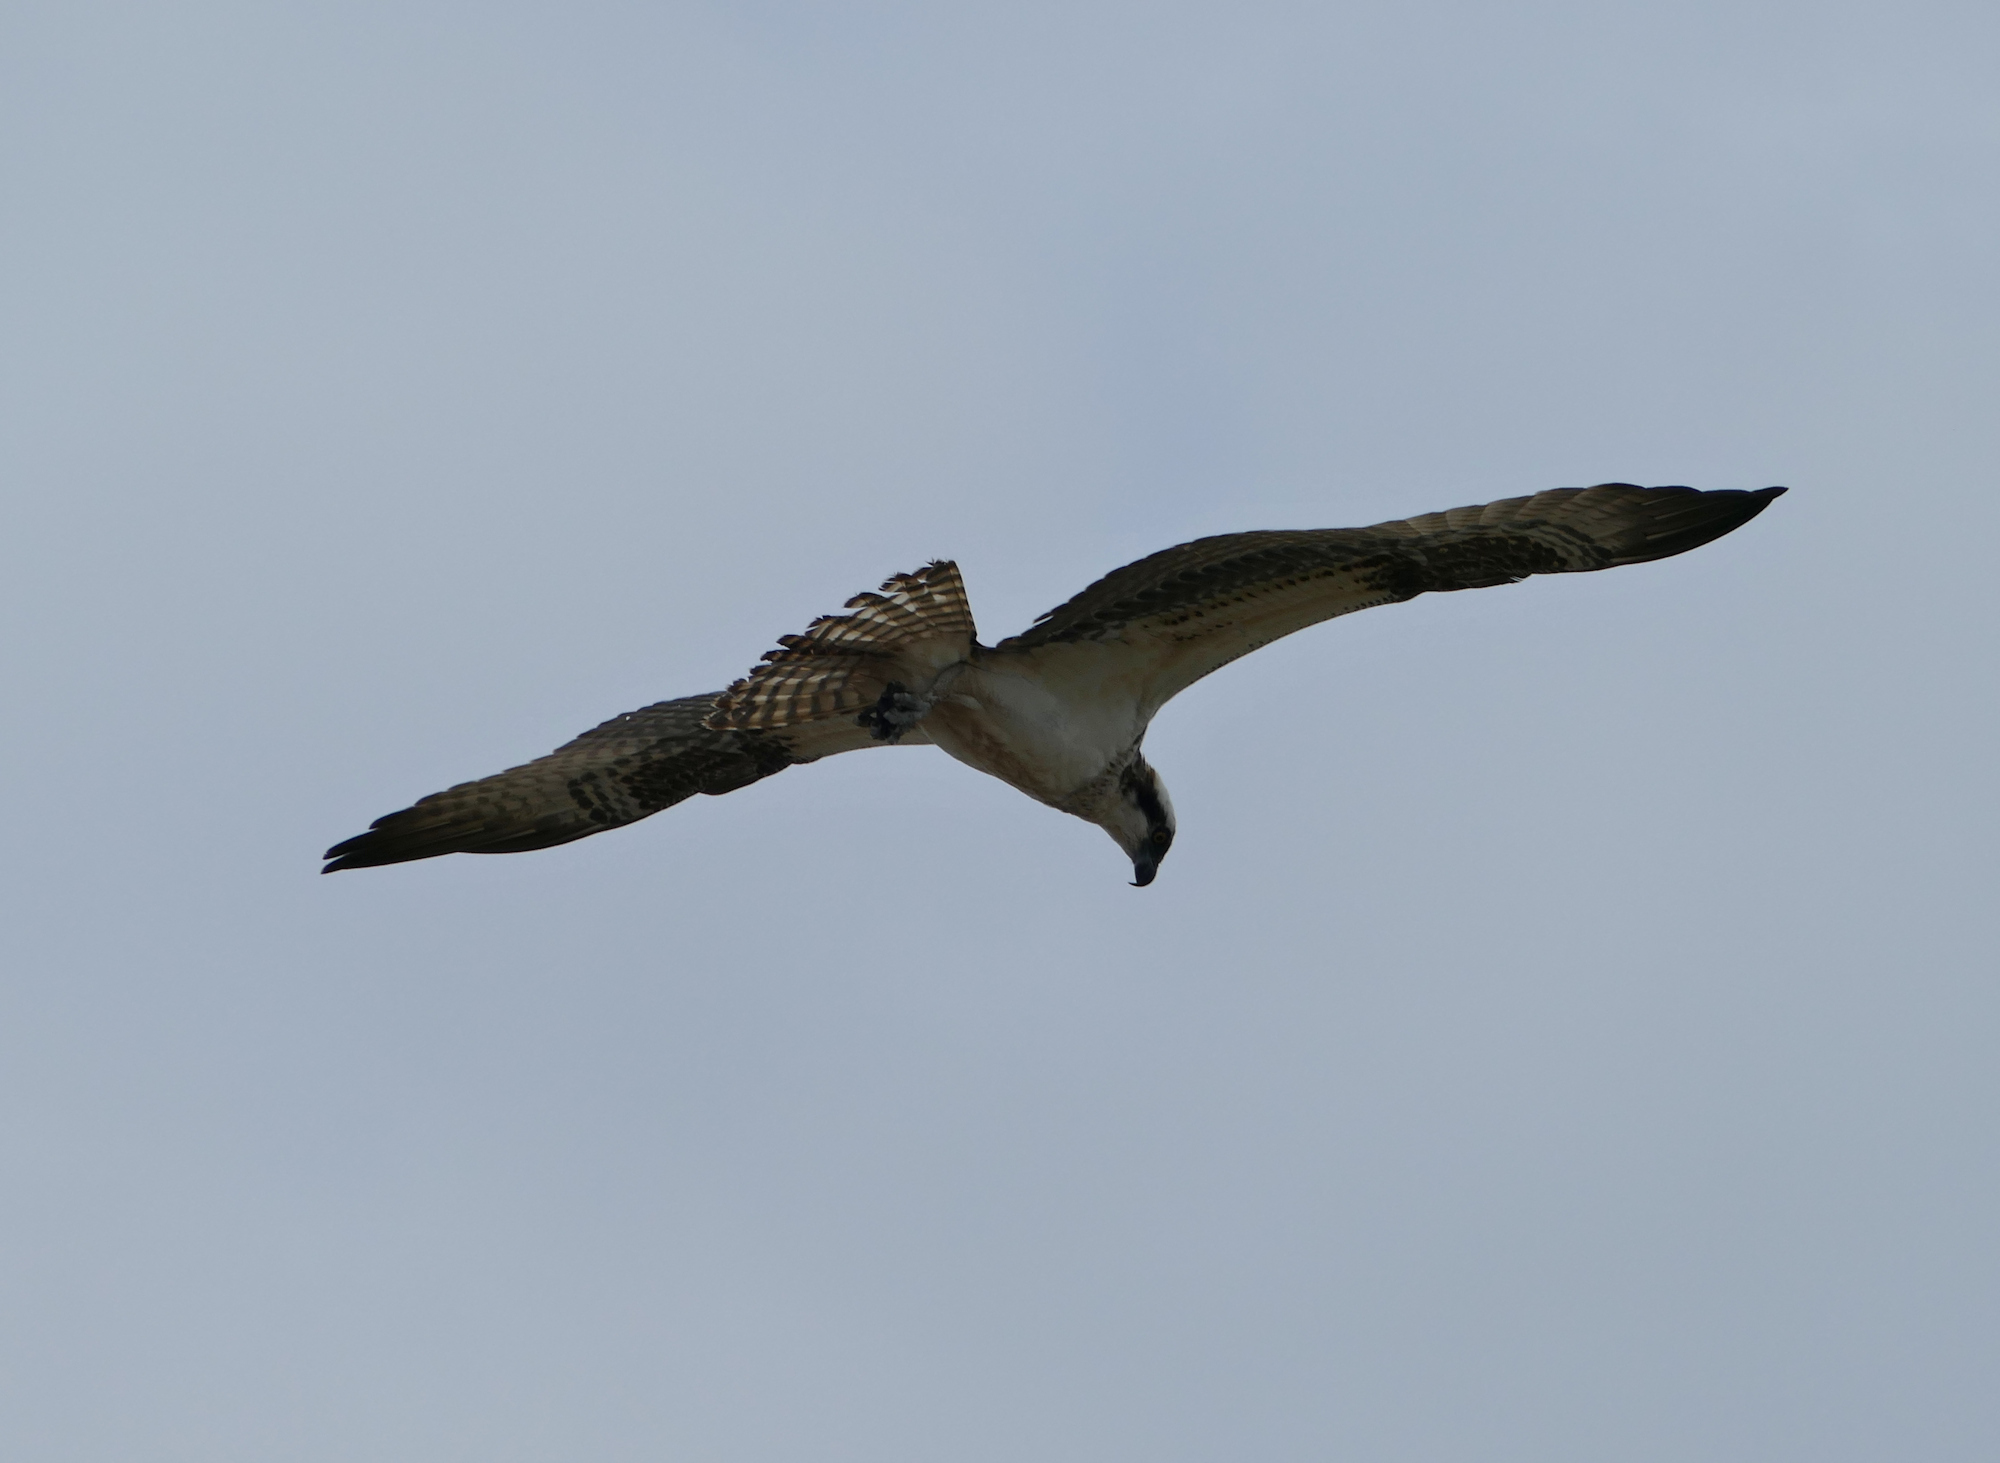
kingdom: Animalia
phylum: Chordata
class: Aves
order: Accipitriformes
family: Pandionidae
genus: Pandion
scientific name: Pandion haliaetus
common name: Osprey
